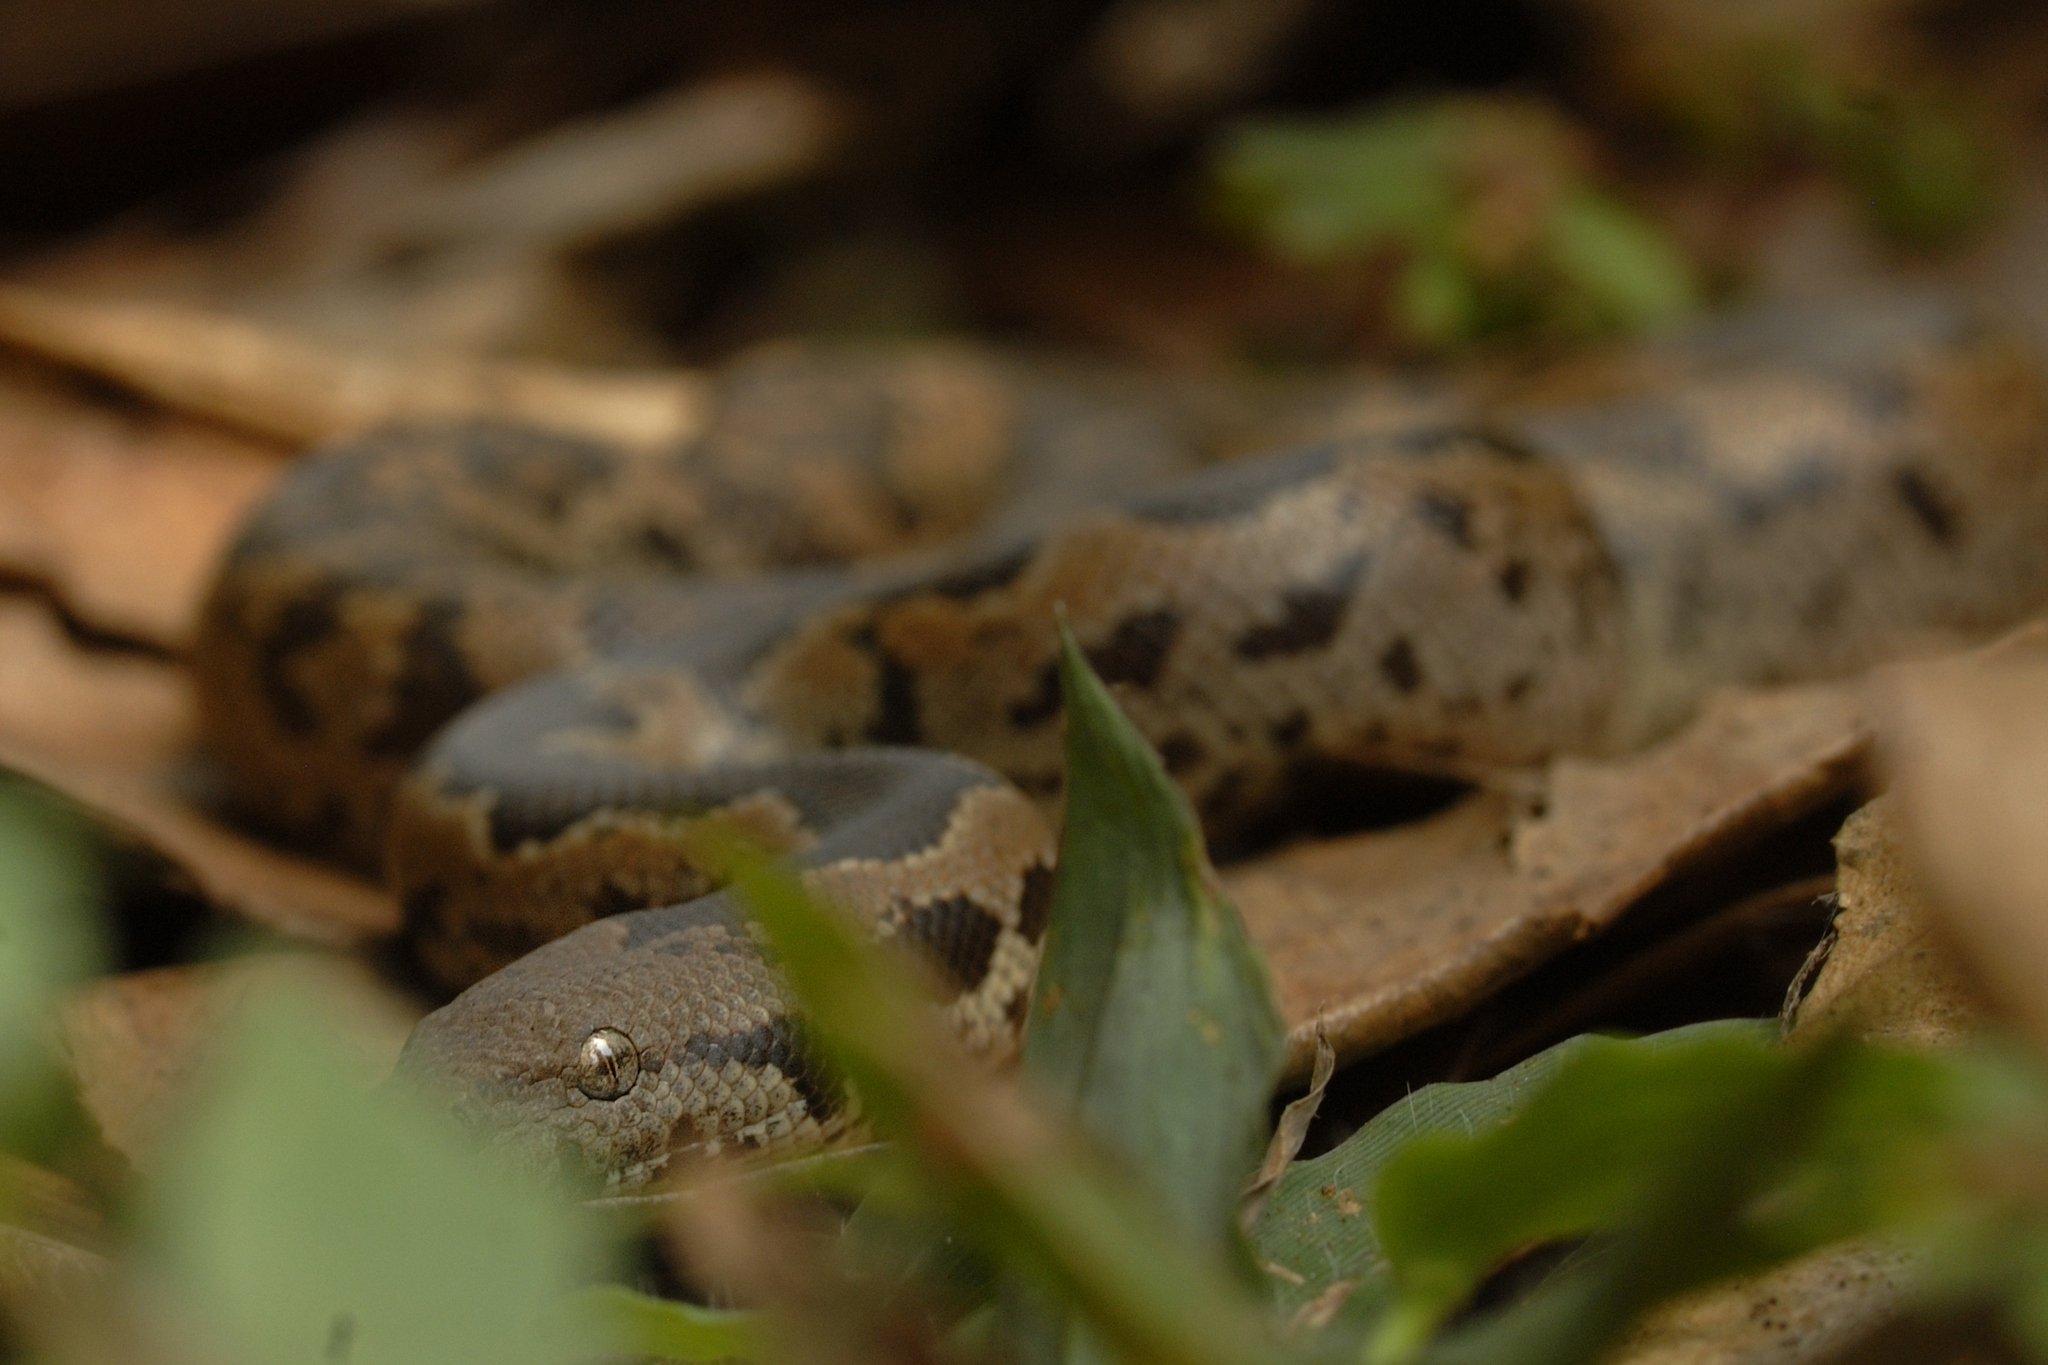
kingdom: Animalia
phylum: Chordata
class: Squamata
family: Boidae
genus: Eryx
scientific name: Eryx whitakeri
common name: Whitaker's boa
